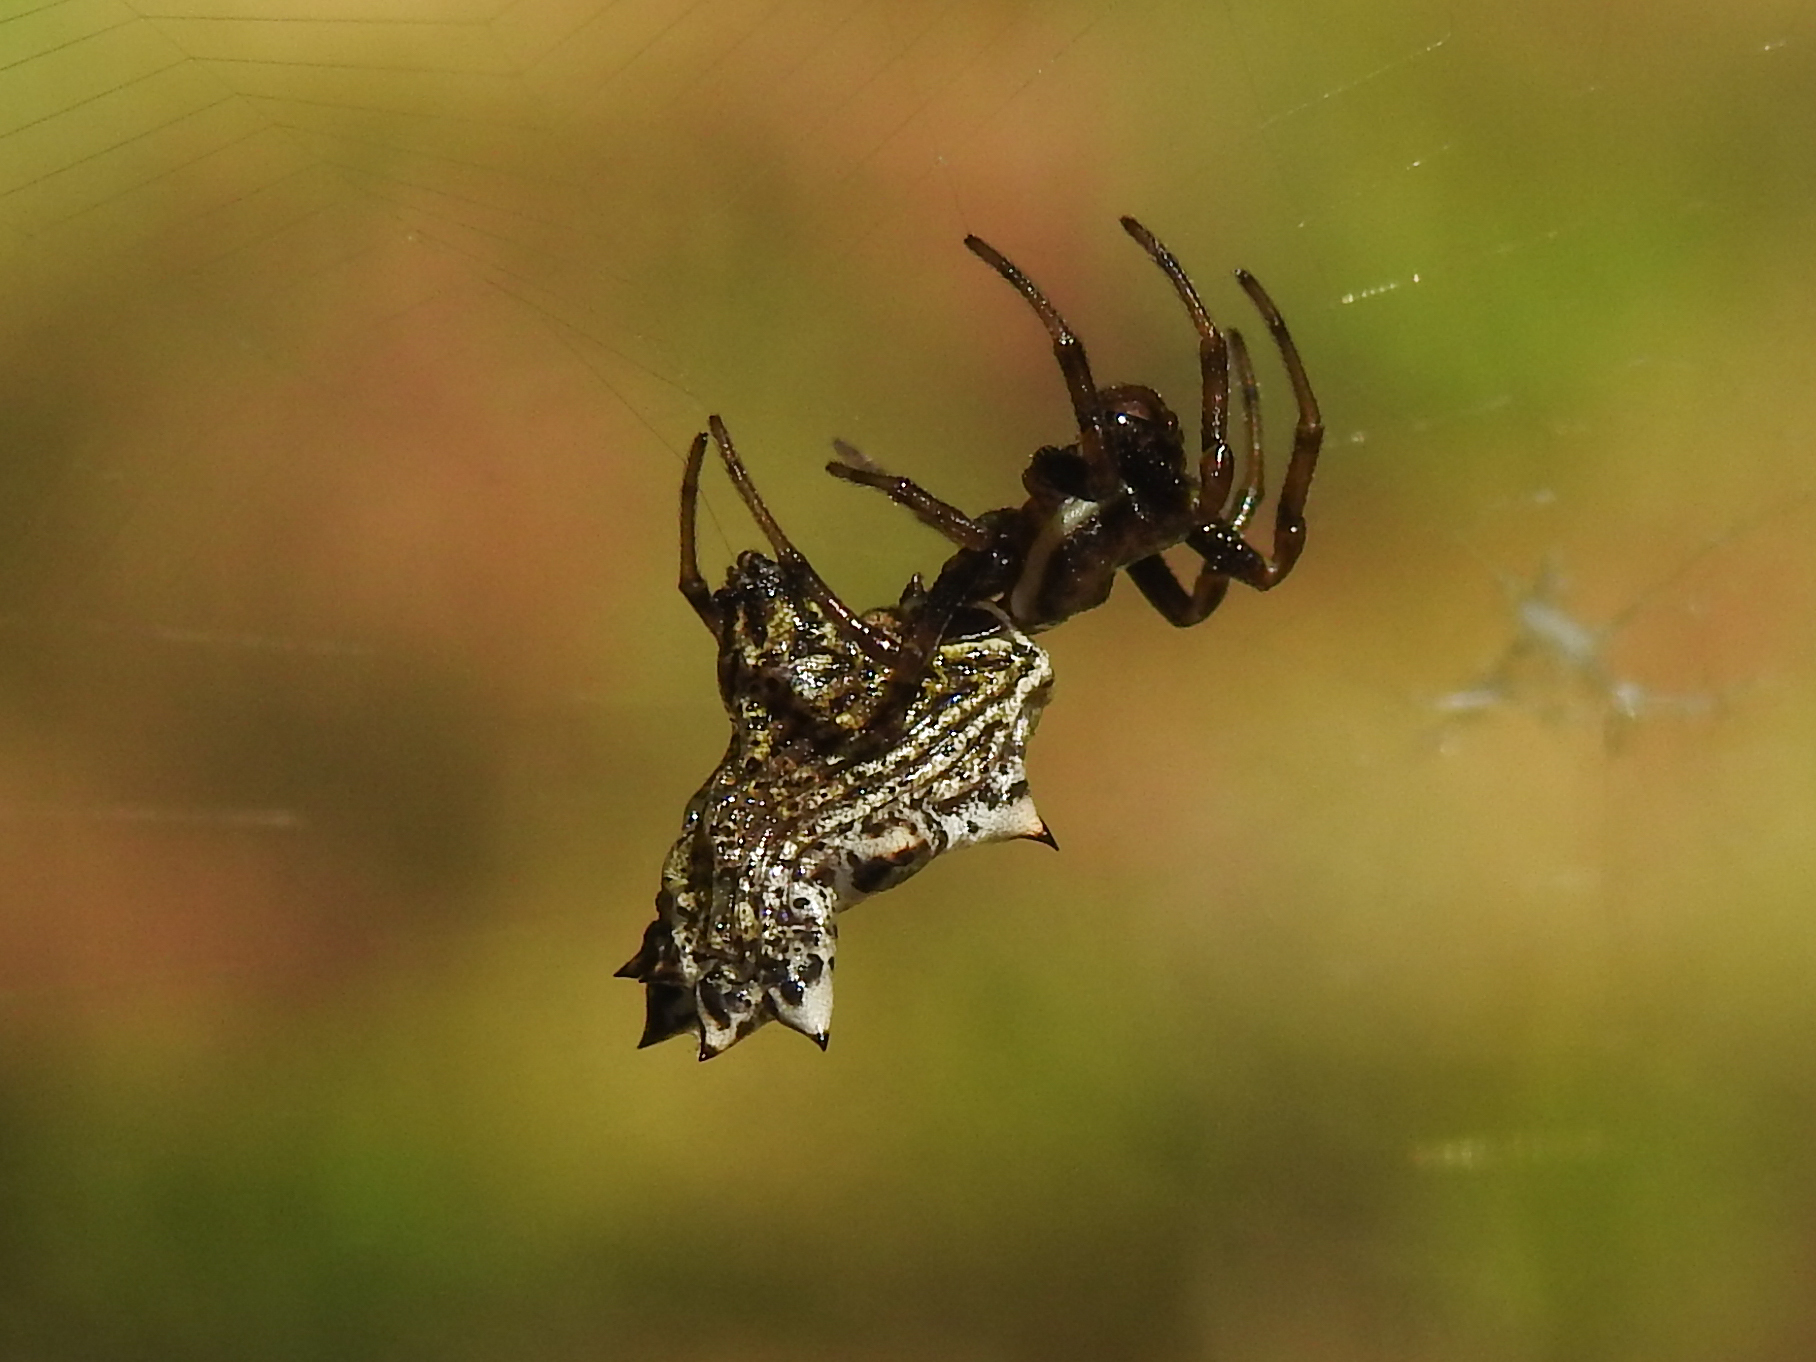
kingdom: Animalia
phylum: Arthropoda
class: Arachnida
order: Araneae
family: Araneidae
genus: Micrathena
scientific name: Micrathena gracilis
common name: Orb weavers
